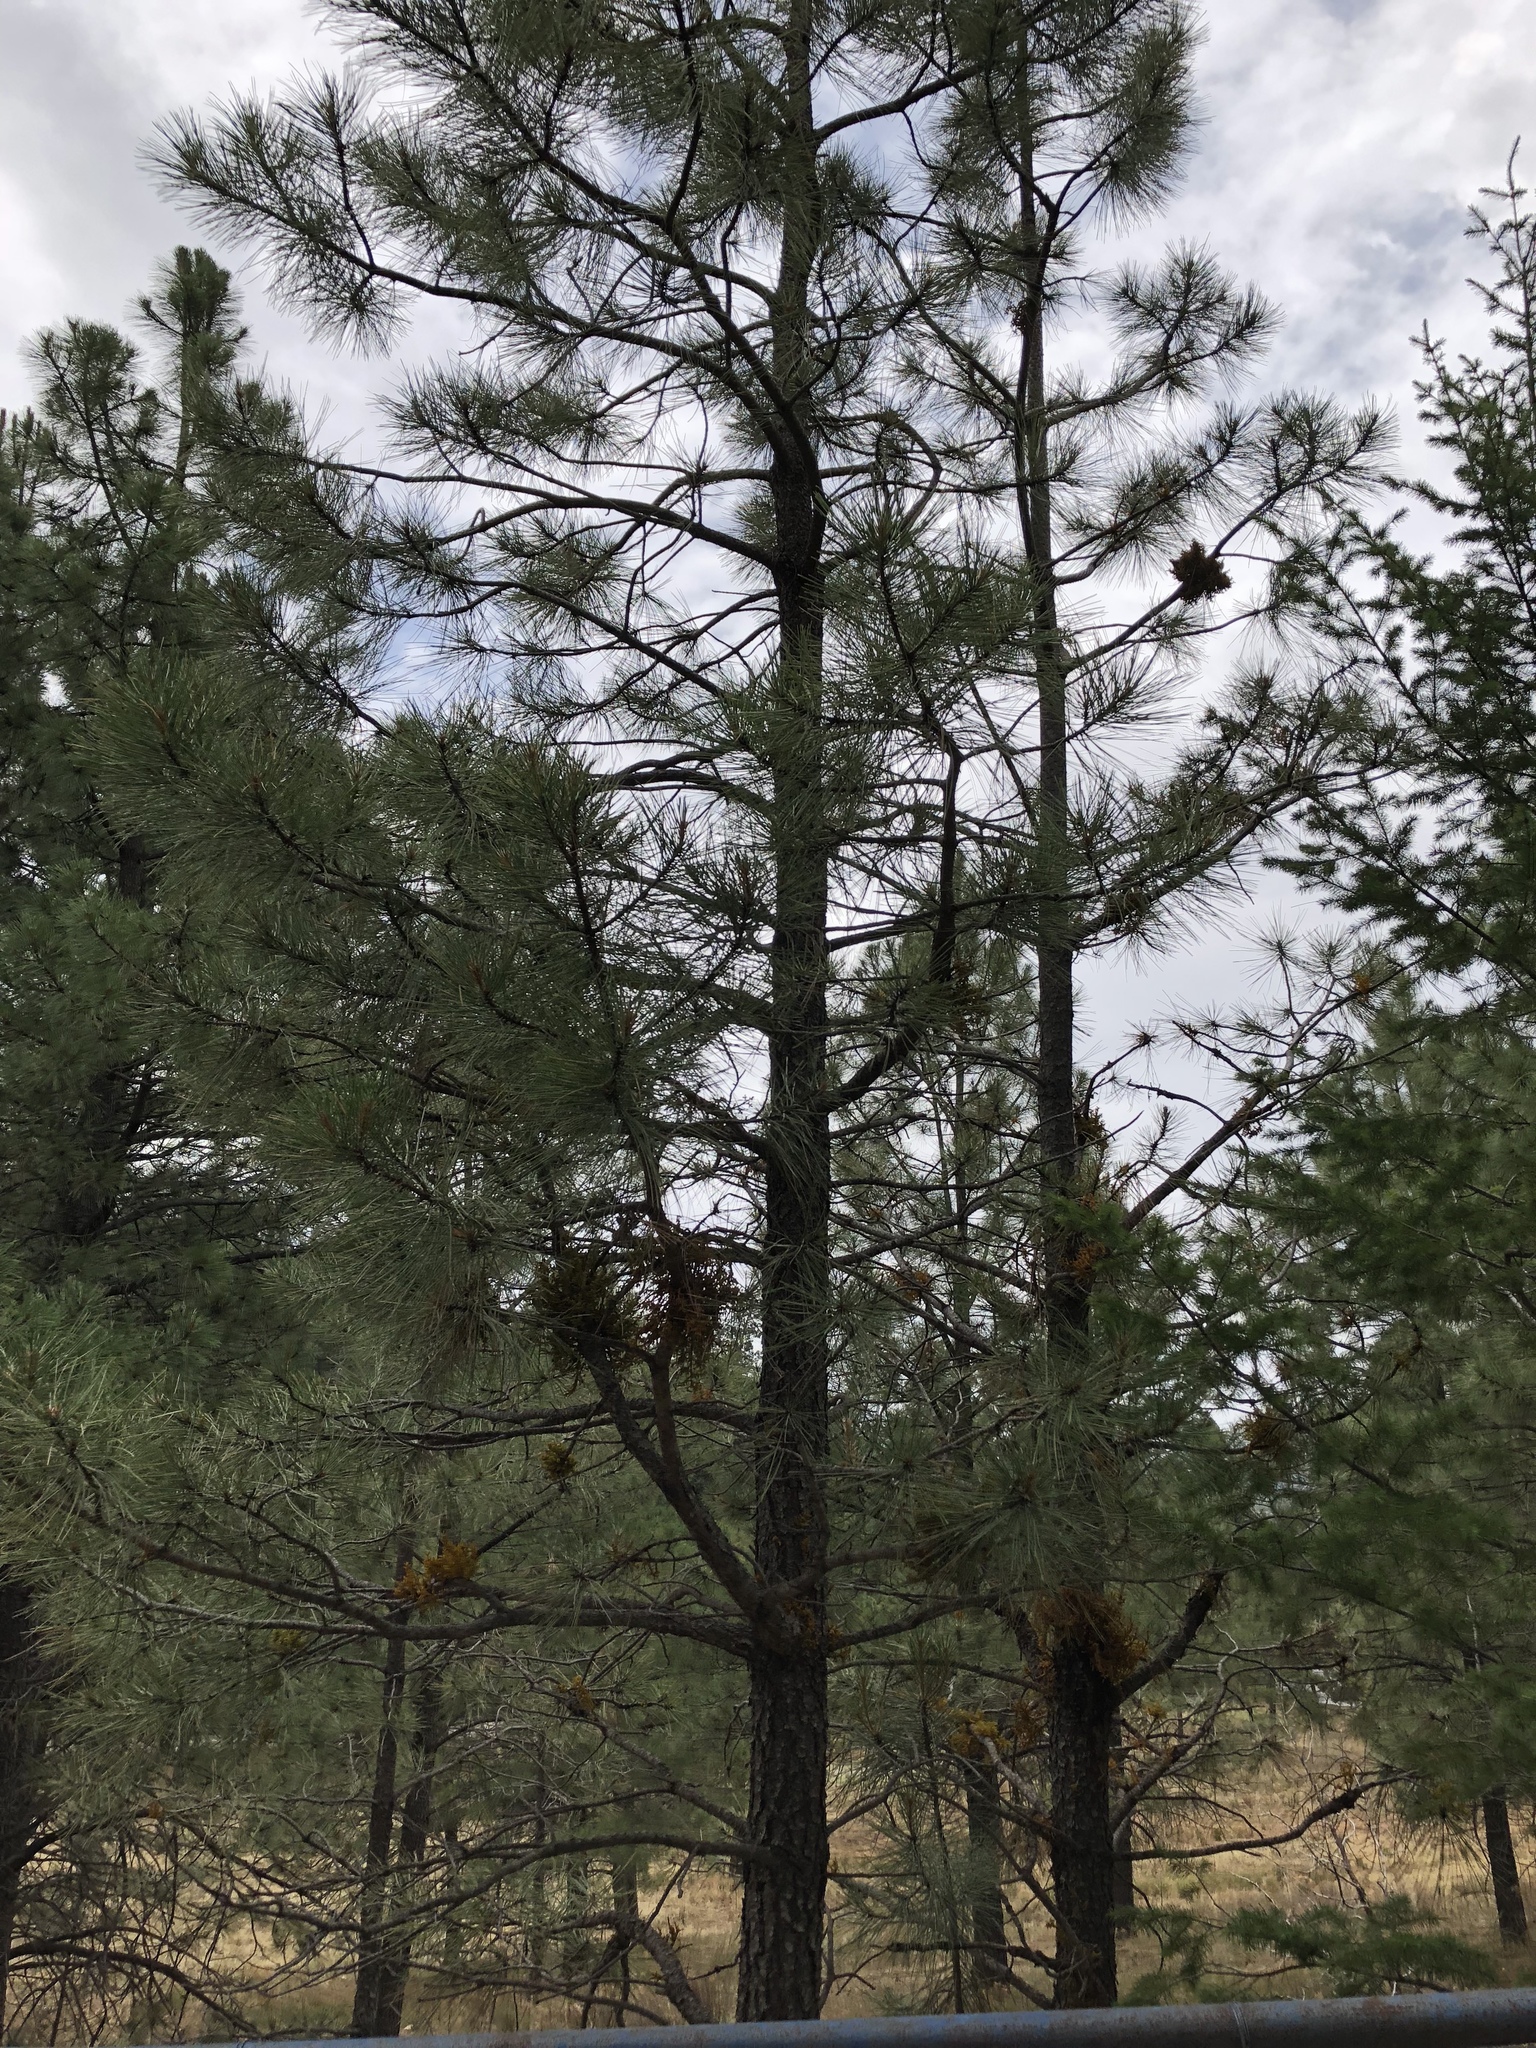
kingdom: Plantae
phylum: Tracheophyta
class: Pinopsida
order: Pinales
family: Pinaceae
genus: Pinus
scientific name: Pinus ponderosa
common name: Western yellow-pine
